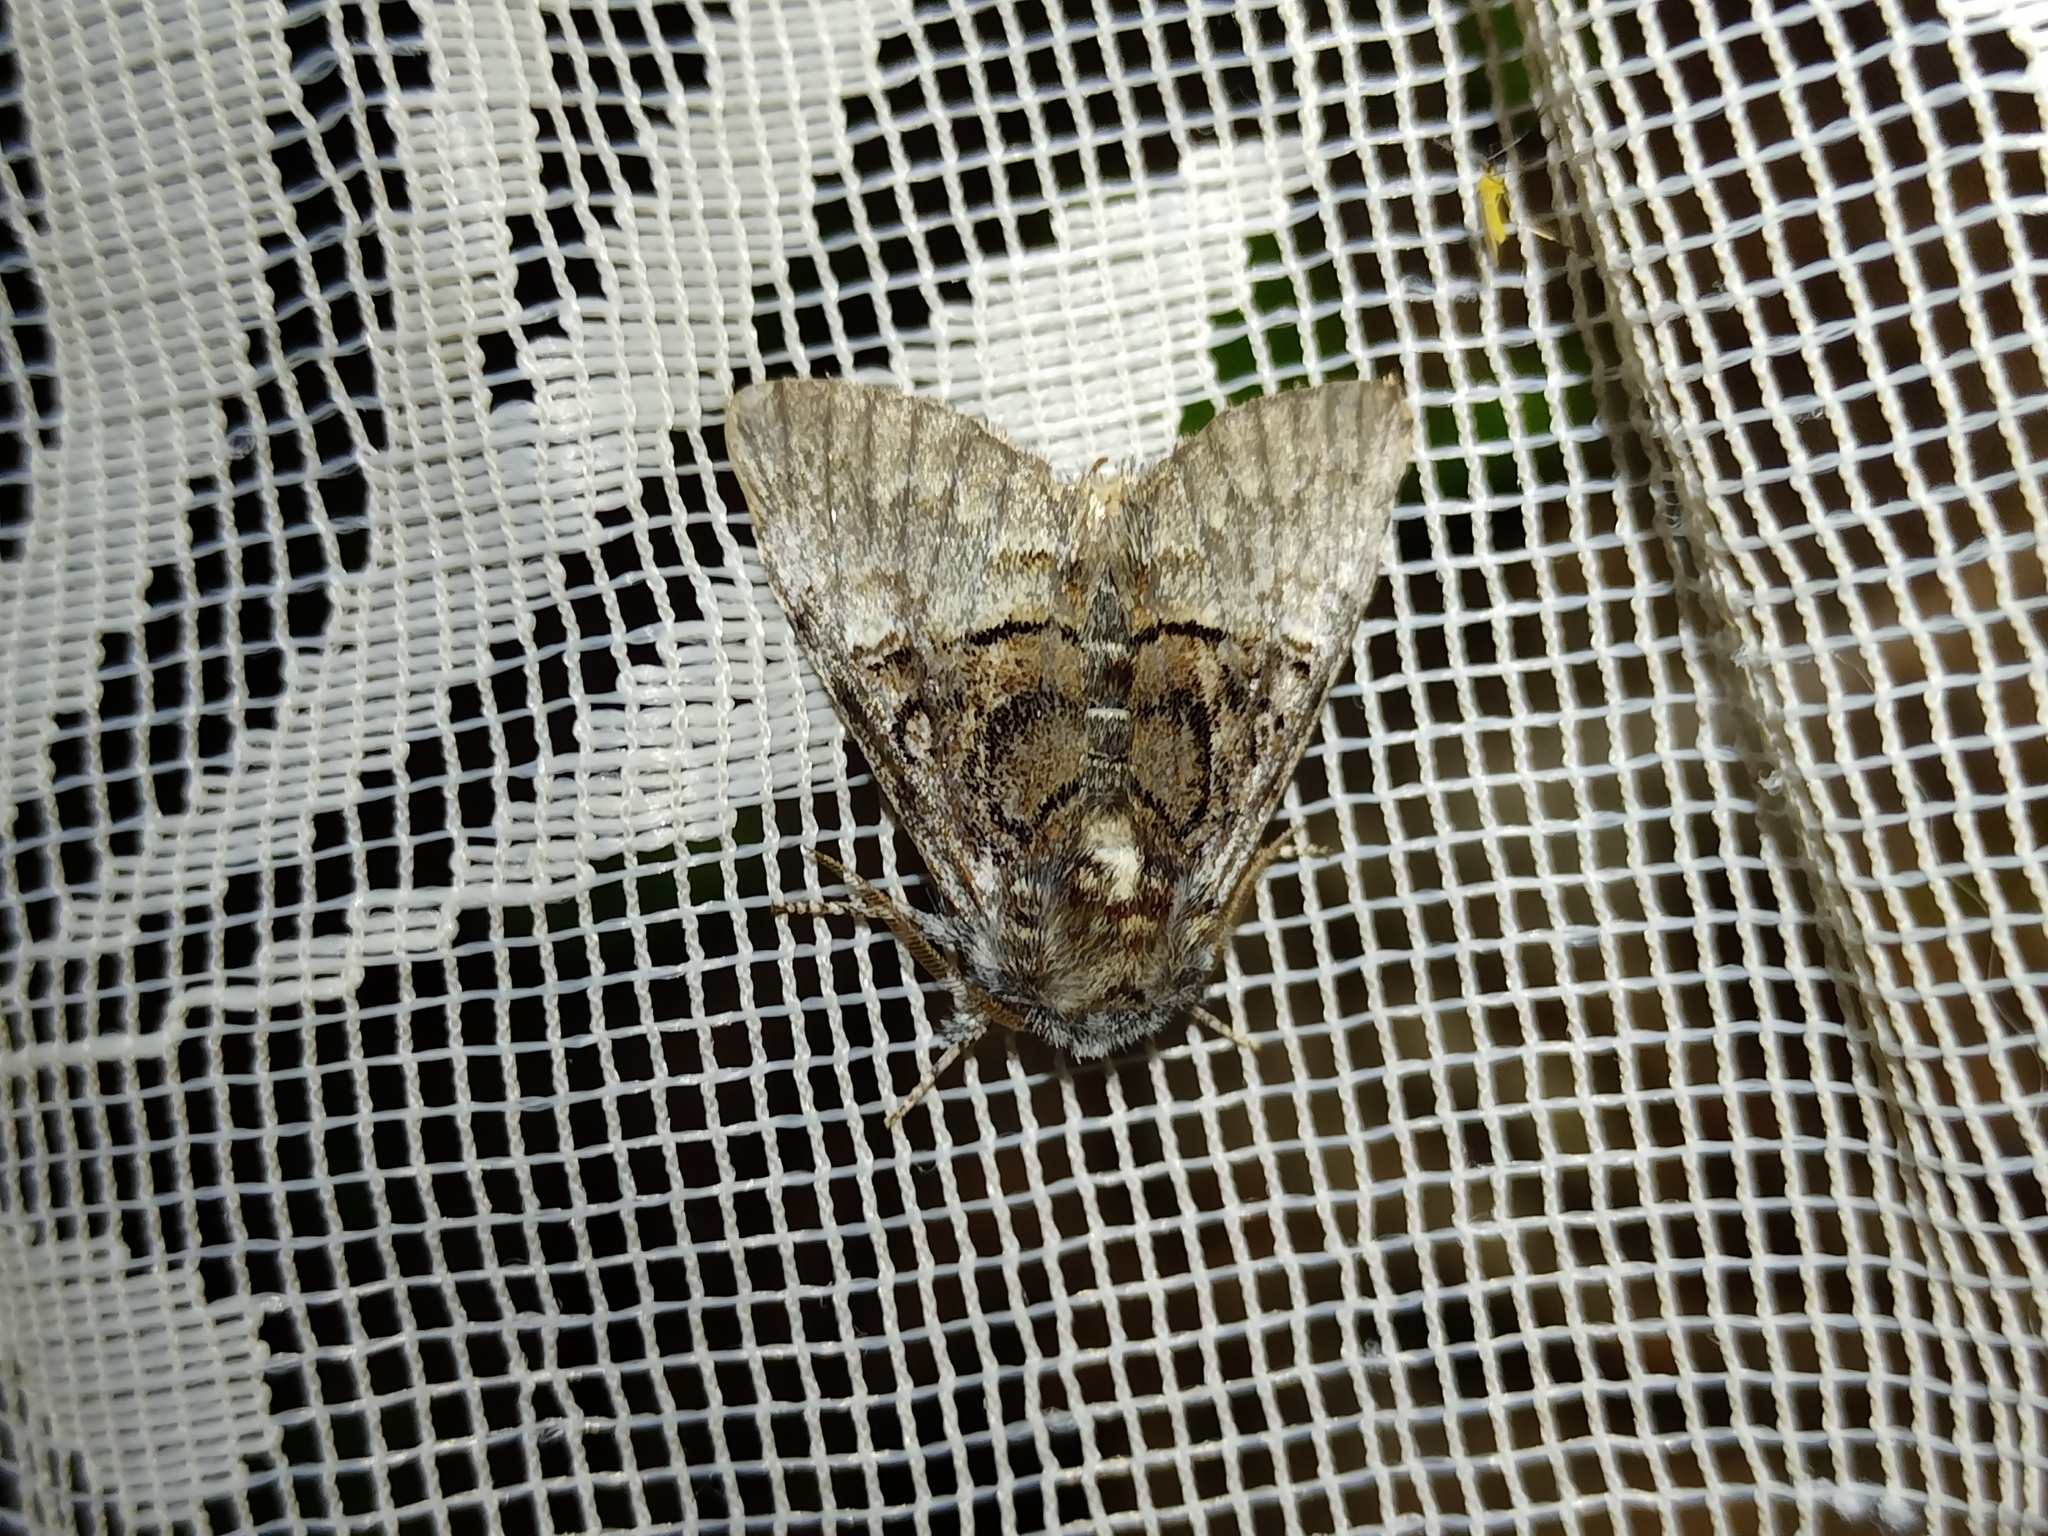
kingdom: Animalia
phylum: Arthropoda
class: Insecta
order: Lepidoptera
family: Noctuidae
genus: Colocasia
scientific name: Colocasia coryli
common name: Nut-tree tussock
